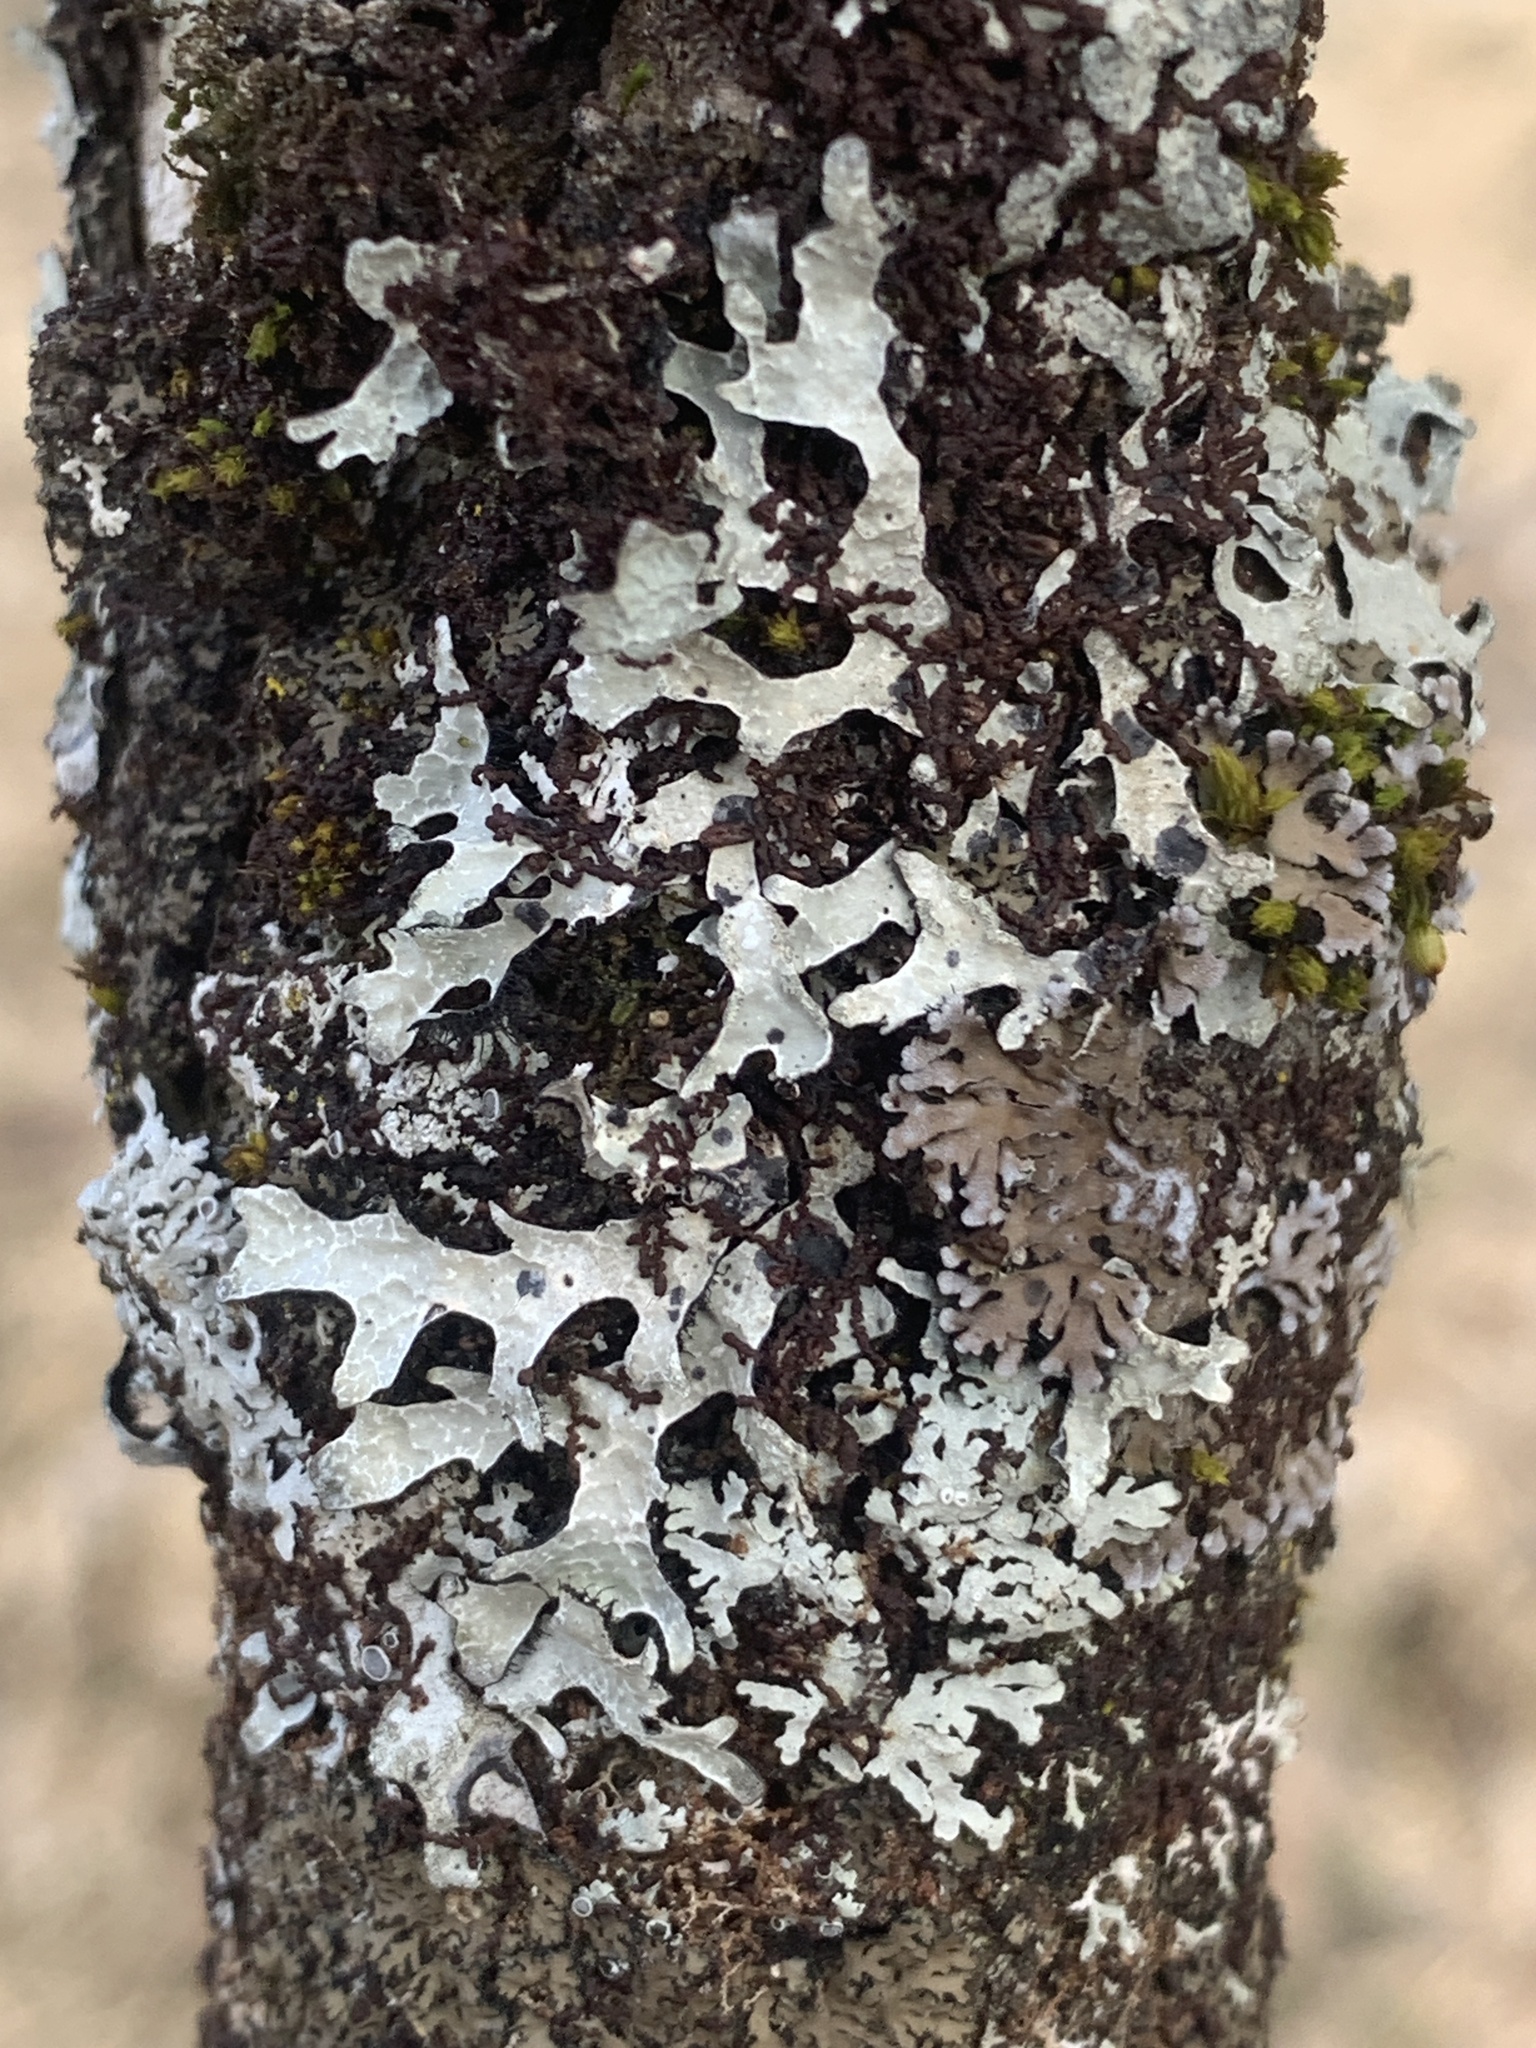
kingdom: Fungi
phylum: Ascomycota
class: Lecanoromycetes
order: Lecanorales
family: Parmeliaceae
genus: Parmelia
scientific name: Parmelia sulcata
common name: Netted shield lichen
